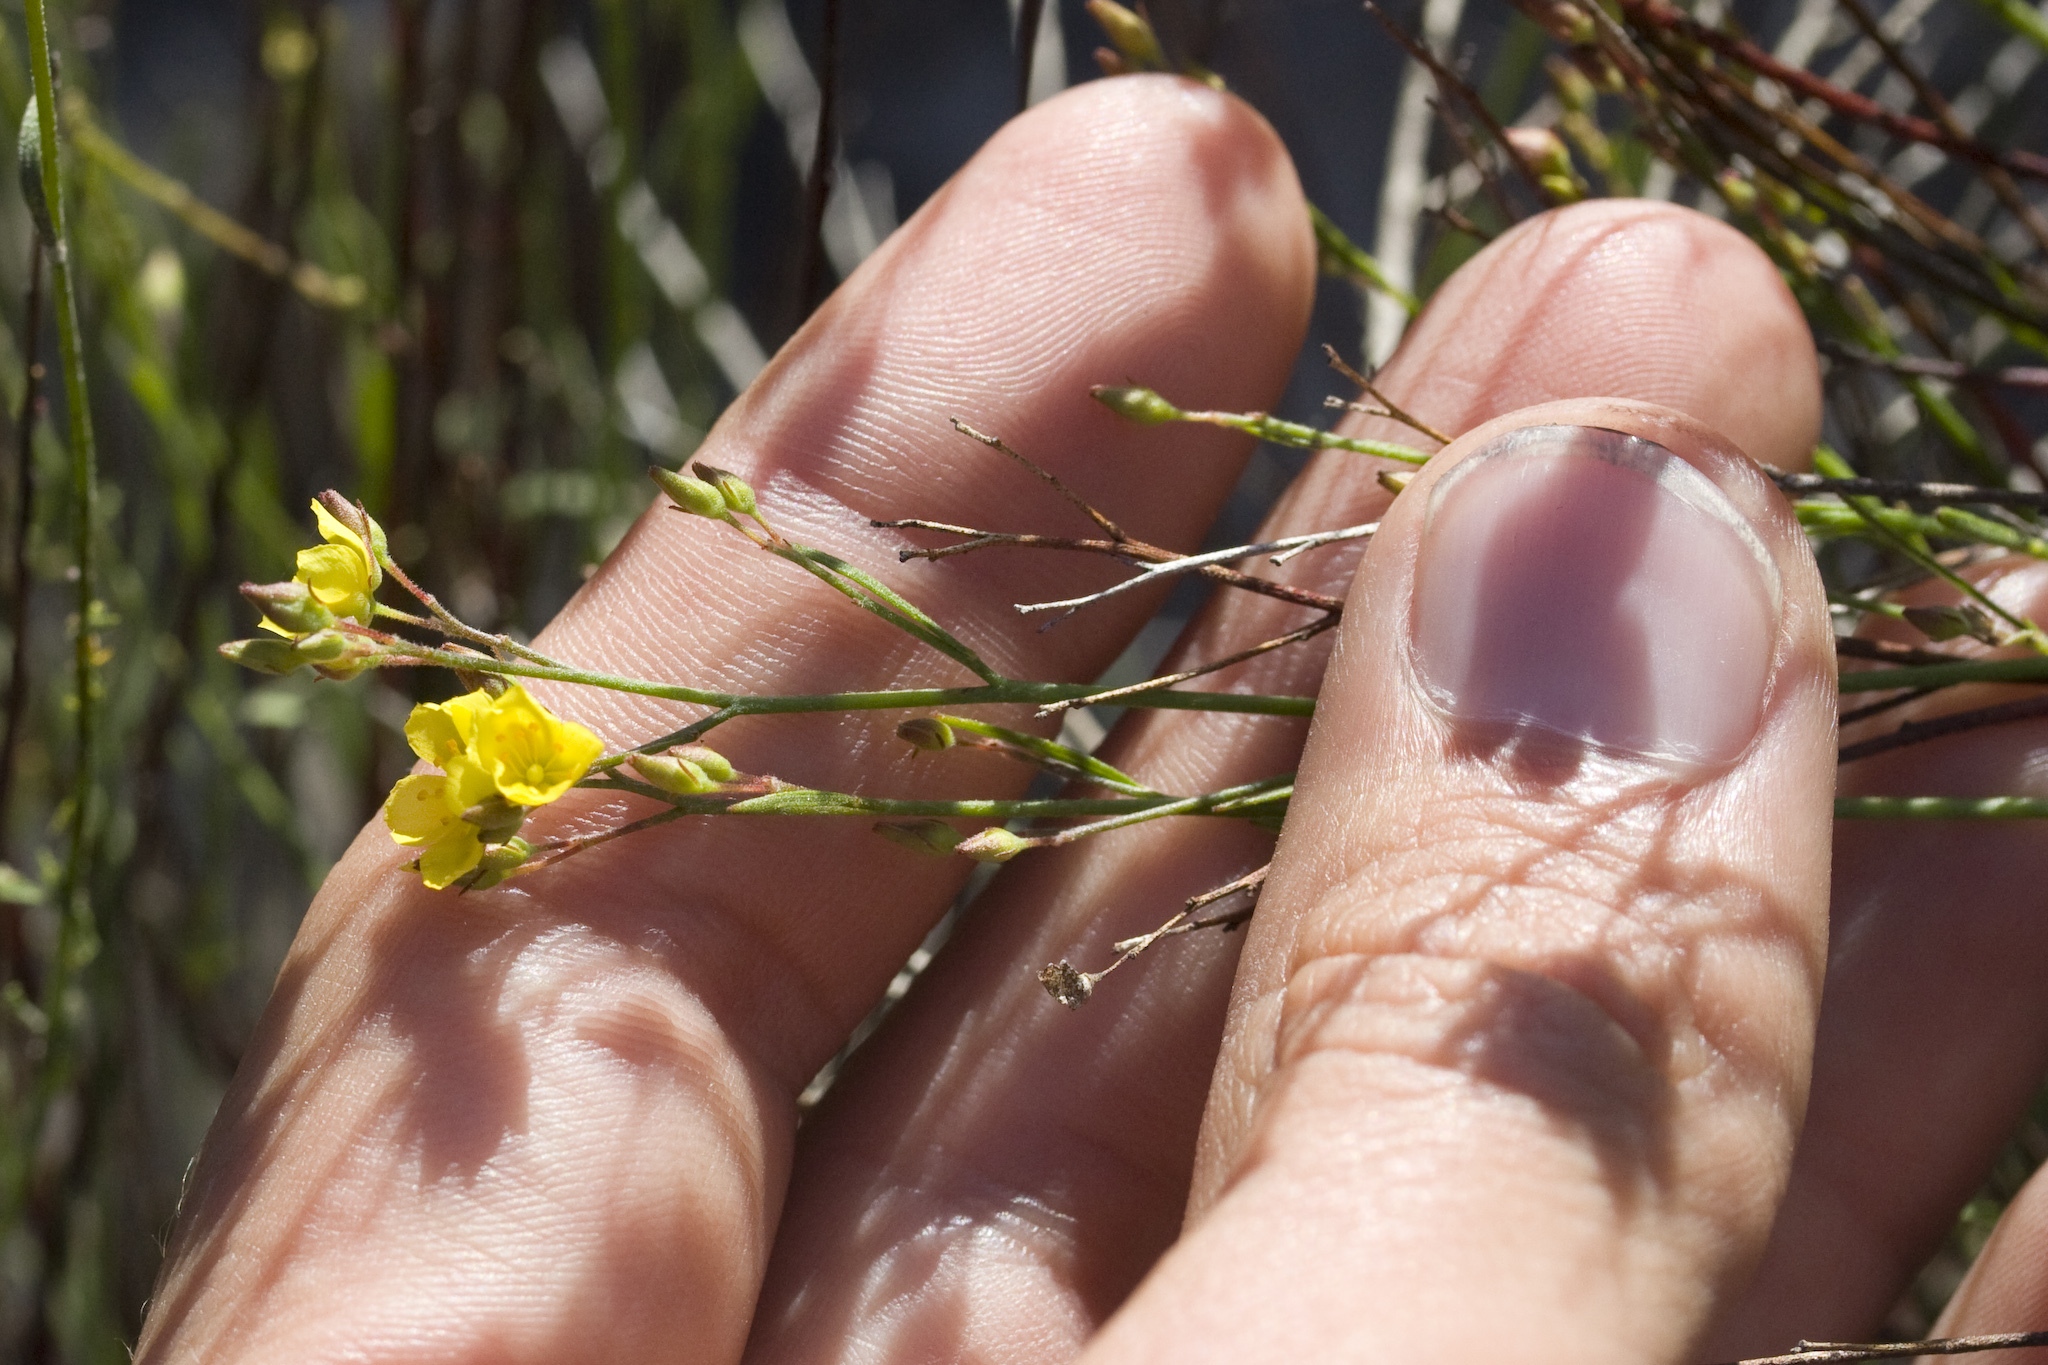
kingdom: Plantae
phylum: Tracheophyta
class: Magnoliopsida
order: Malvales
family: Cistaceae
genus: Crocanthemum
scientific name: Crocanthemum scoparium
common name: Broom-rose
